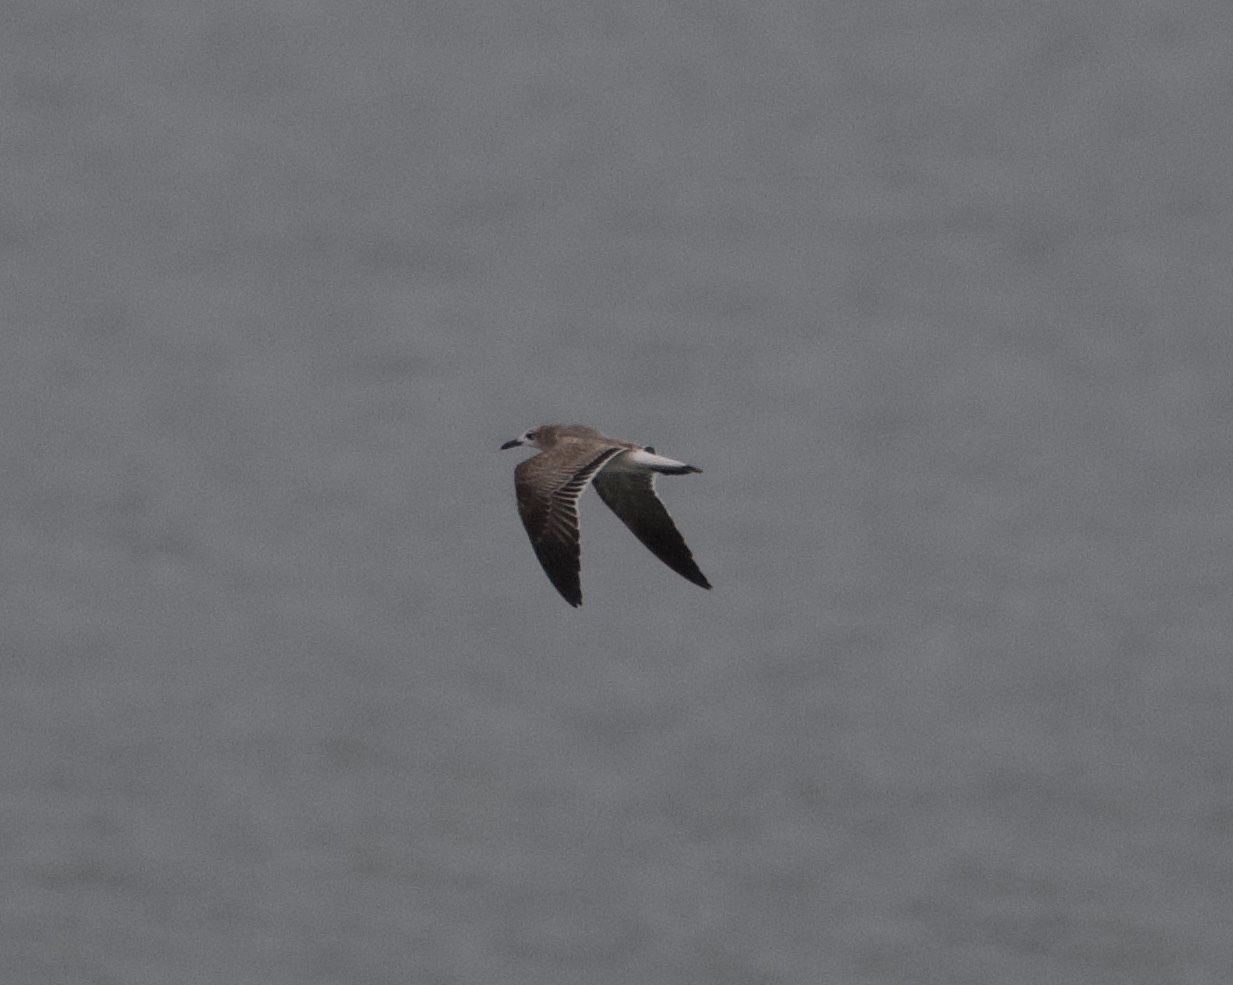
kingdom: Animalia
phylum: Chordata
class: Aves
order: Charadriiformes
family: Laridae
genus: Leucophaeus
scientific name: Leucophaeus atricilla
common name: Laughing gull
